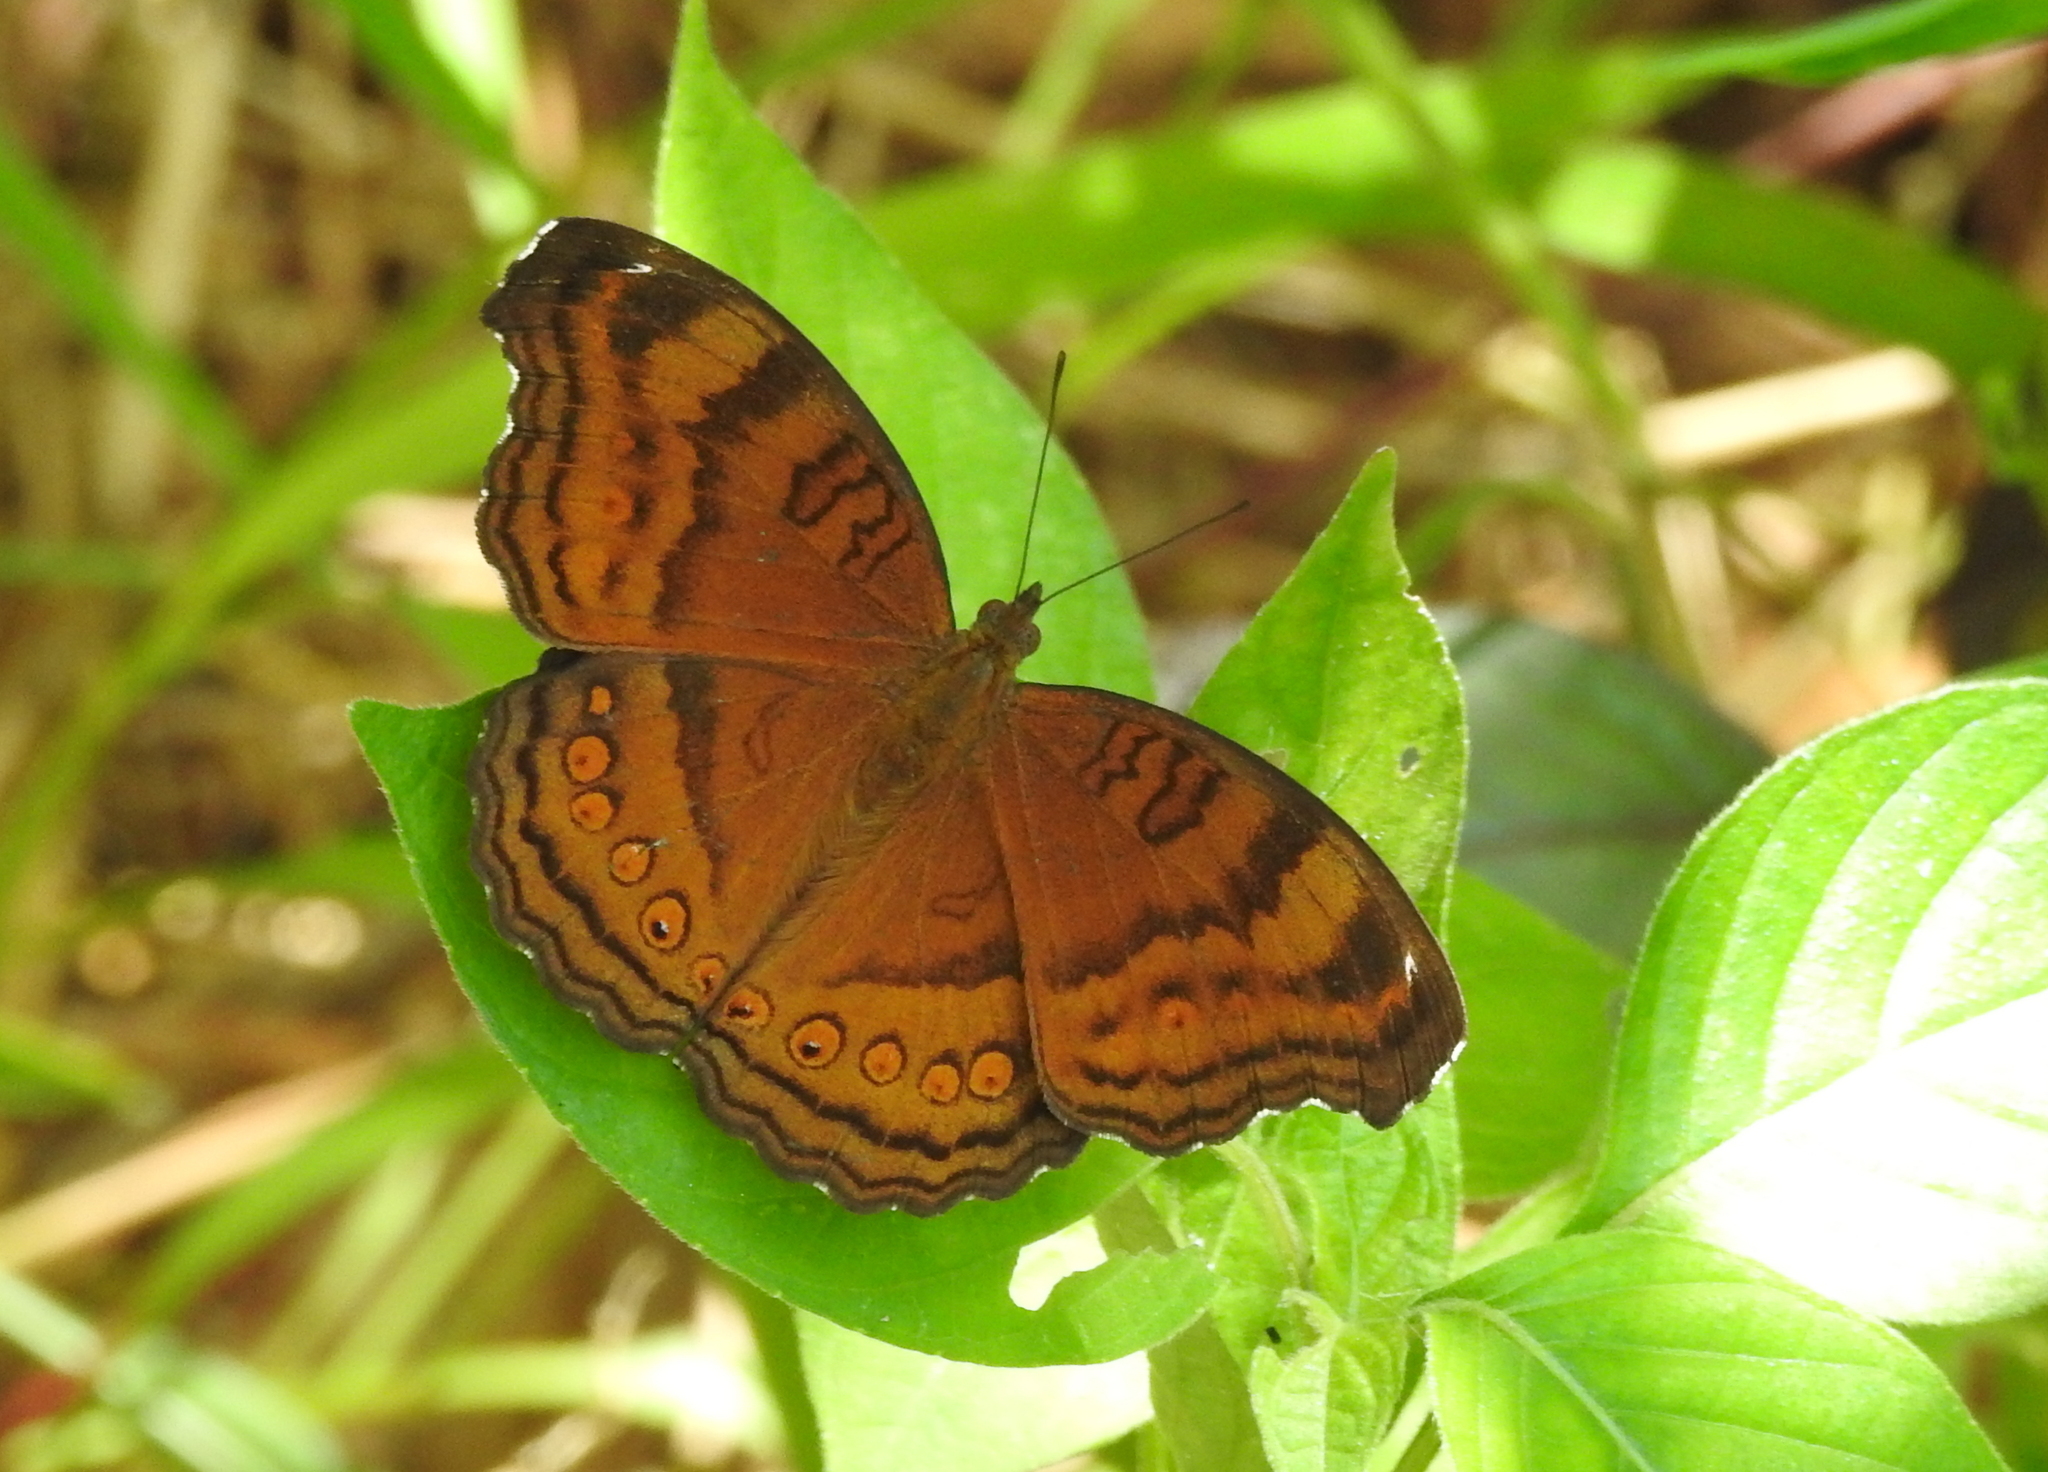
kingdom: Animalia
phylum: Arthropoda
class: Insecta
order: Lepidoptera
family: Nymphalidae
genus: Junonia
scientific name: Junonia hedonia
